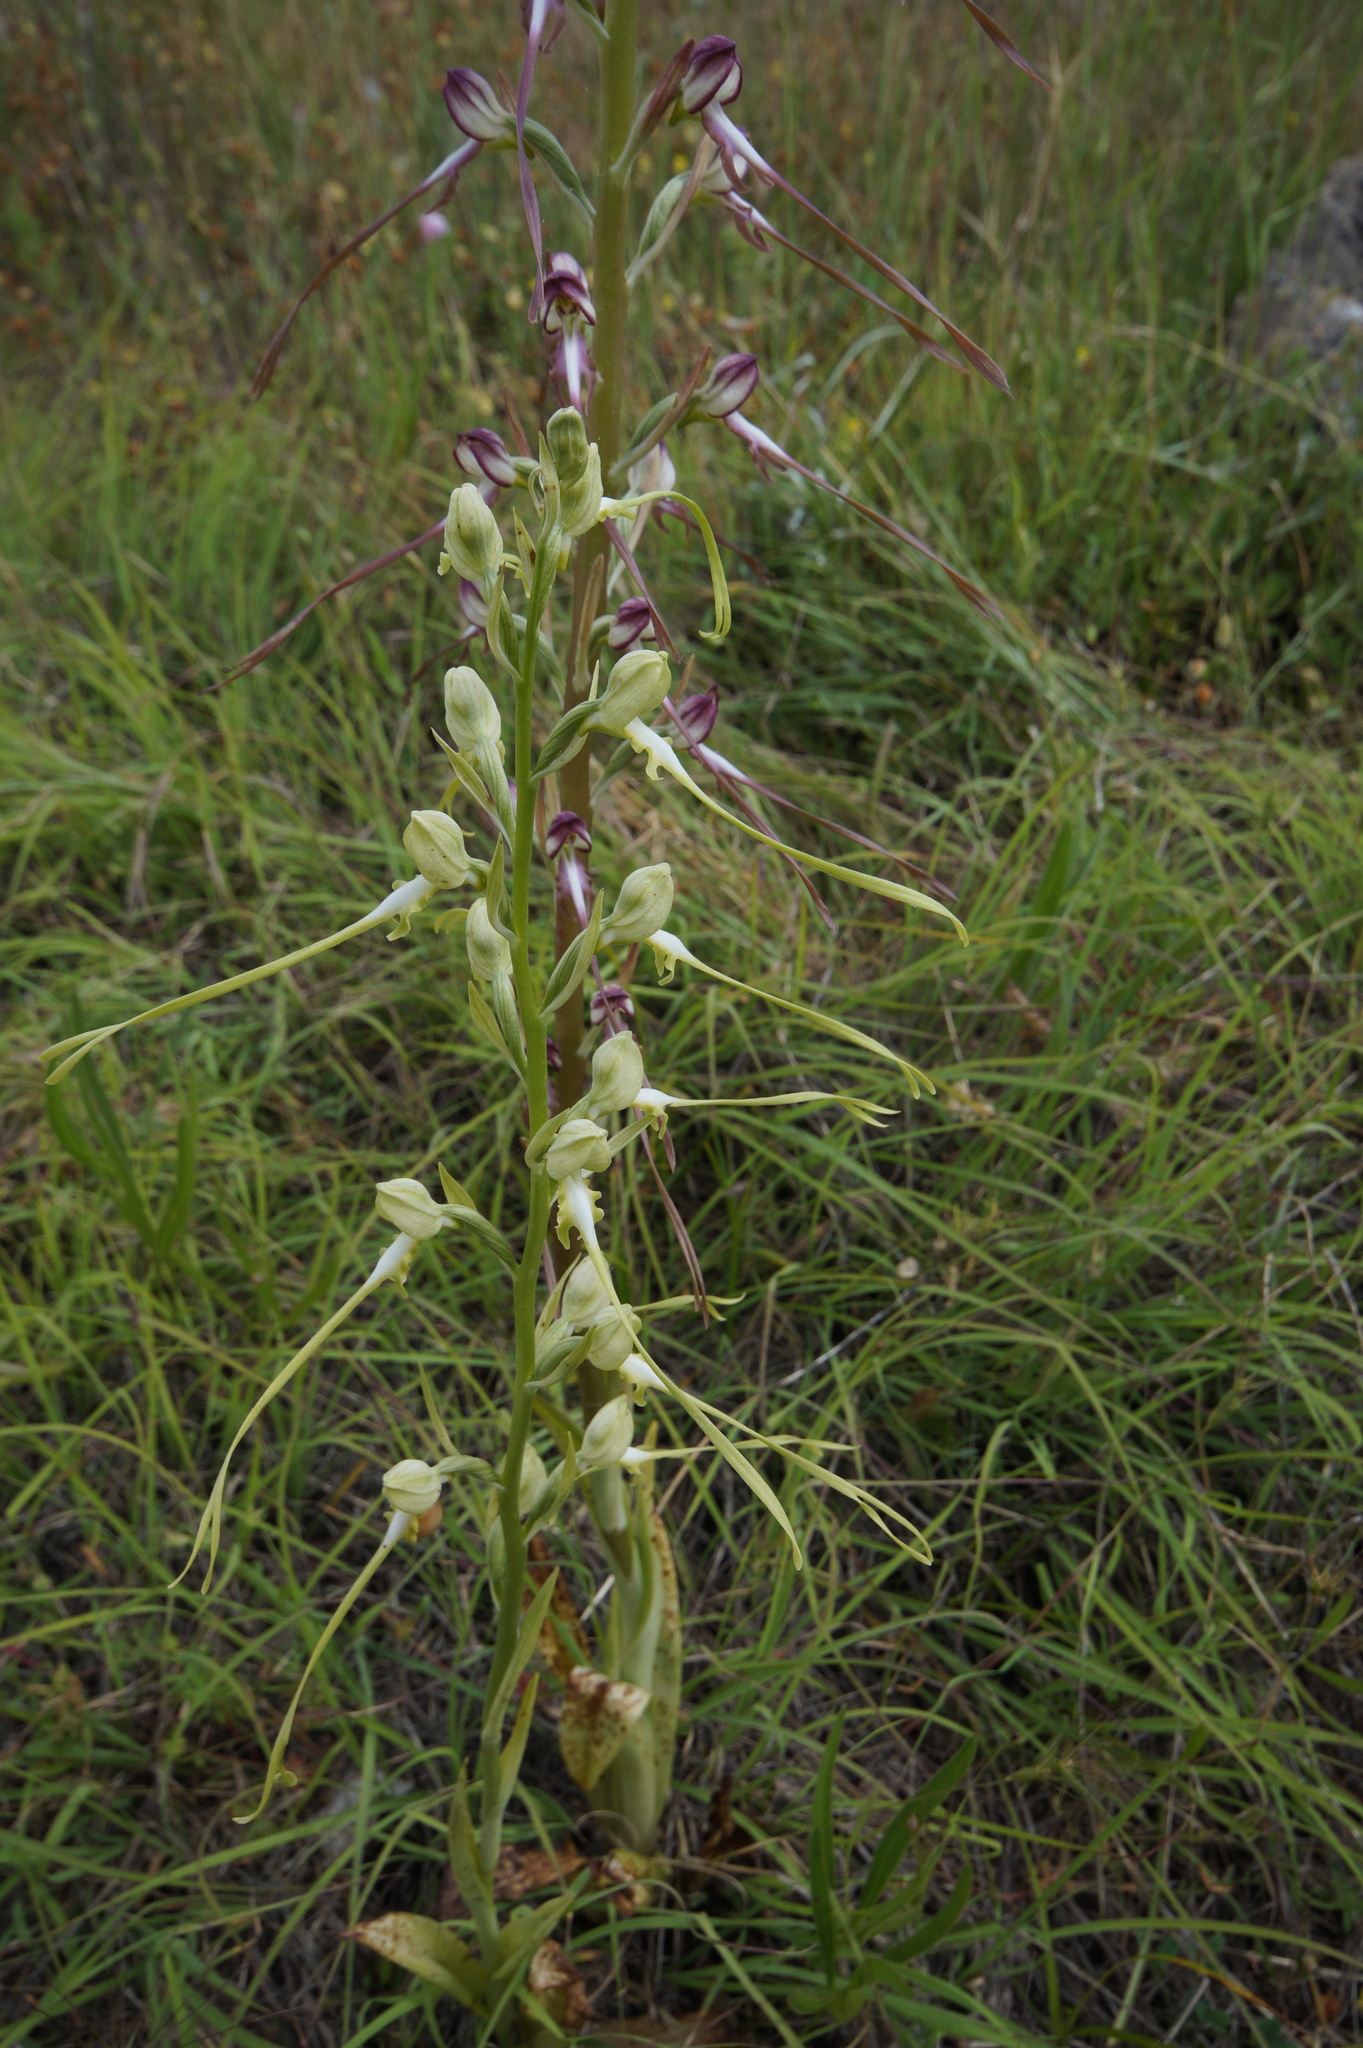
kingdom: Plantae
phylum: Tracheophyta
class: Liliopsida
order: Asparagales
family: Orchidaceae
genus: Himantoglossum
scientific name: Himantoglossum caprinum
